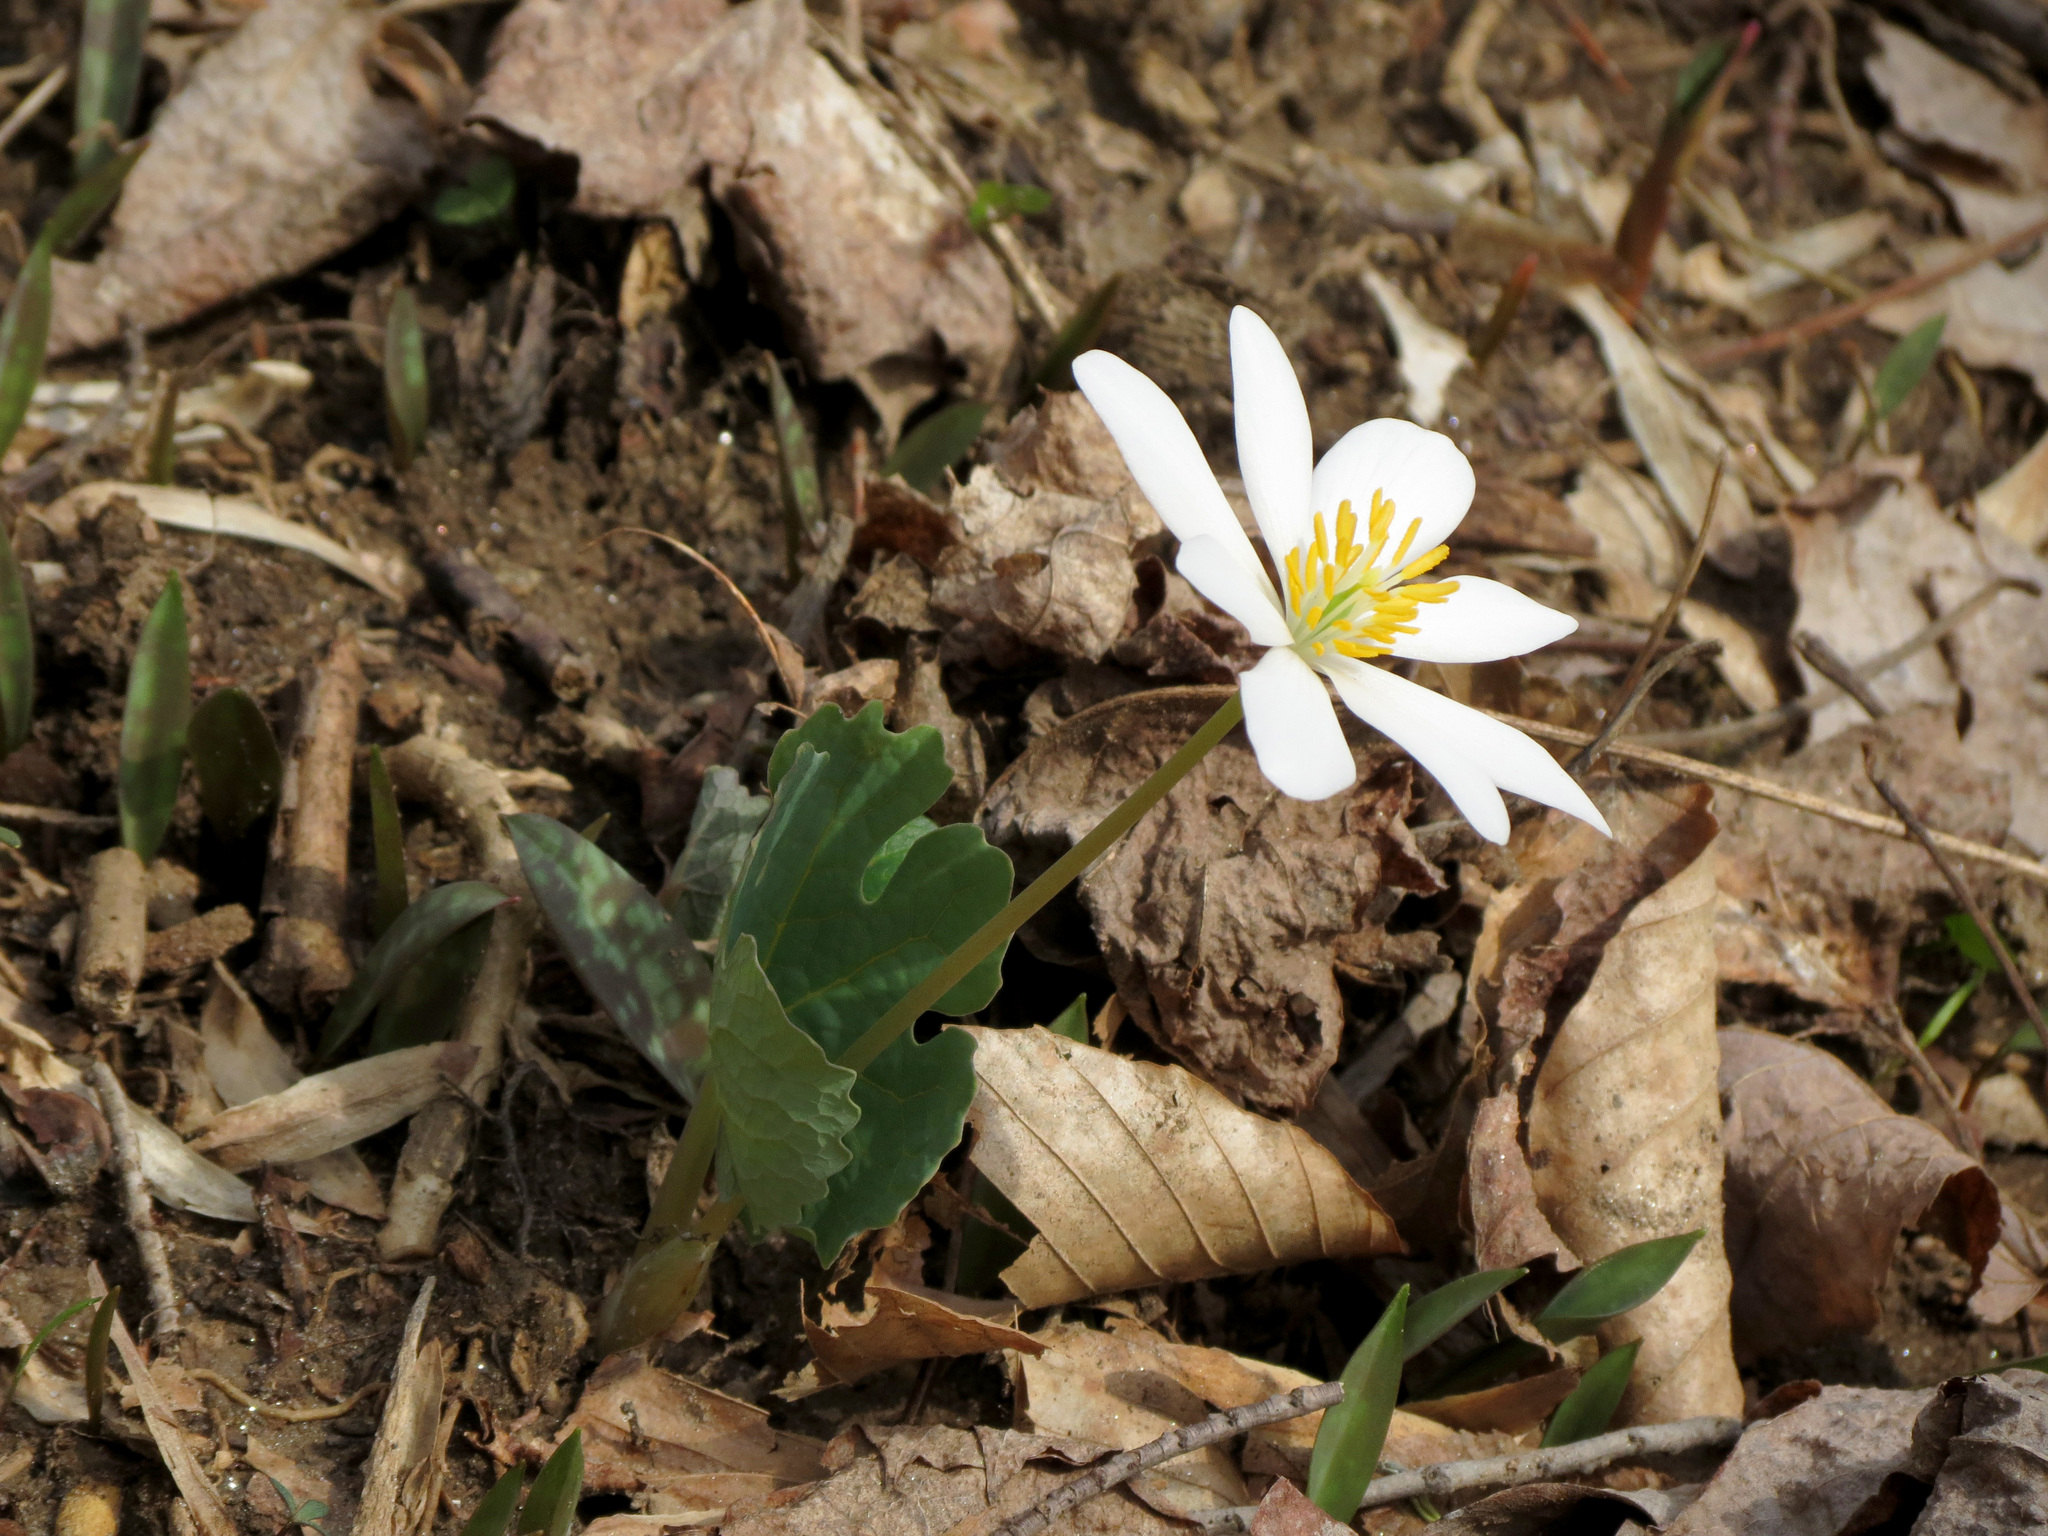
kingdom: Plantae
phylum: Tracheophyta
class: Magnoliopsida
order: Ranunculales
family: Papaveraceae
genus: Sanguinaria
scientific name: Sanguinaria canadensis
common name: Bloodroot
